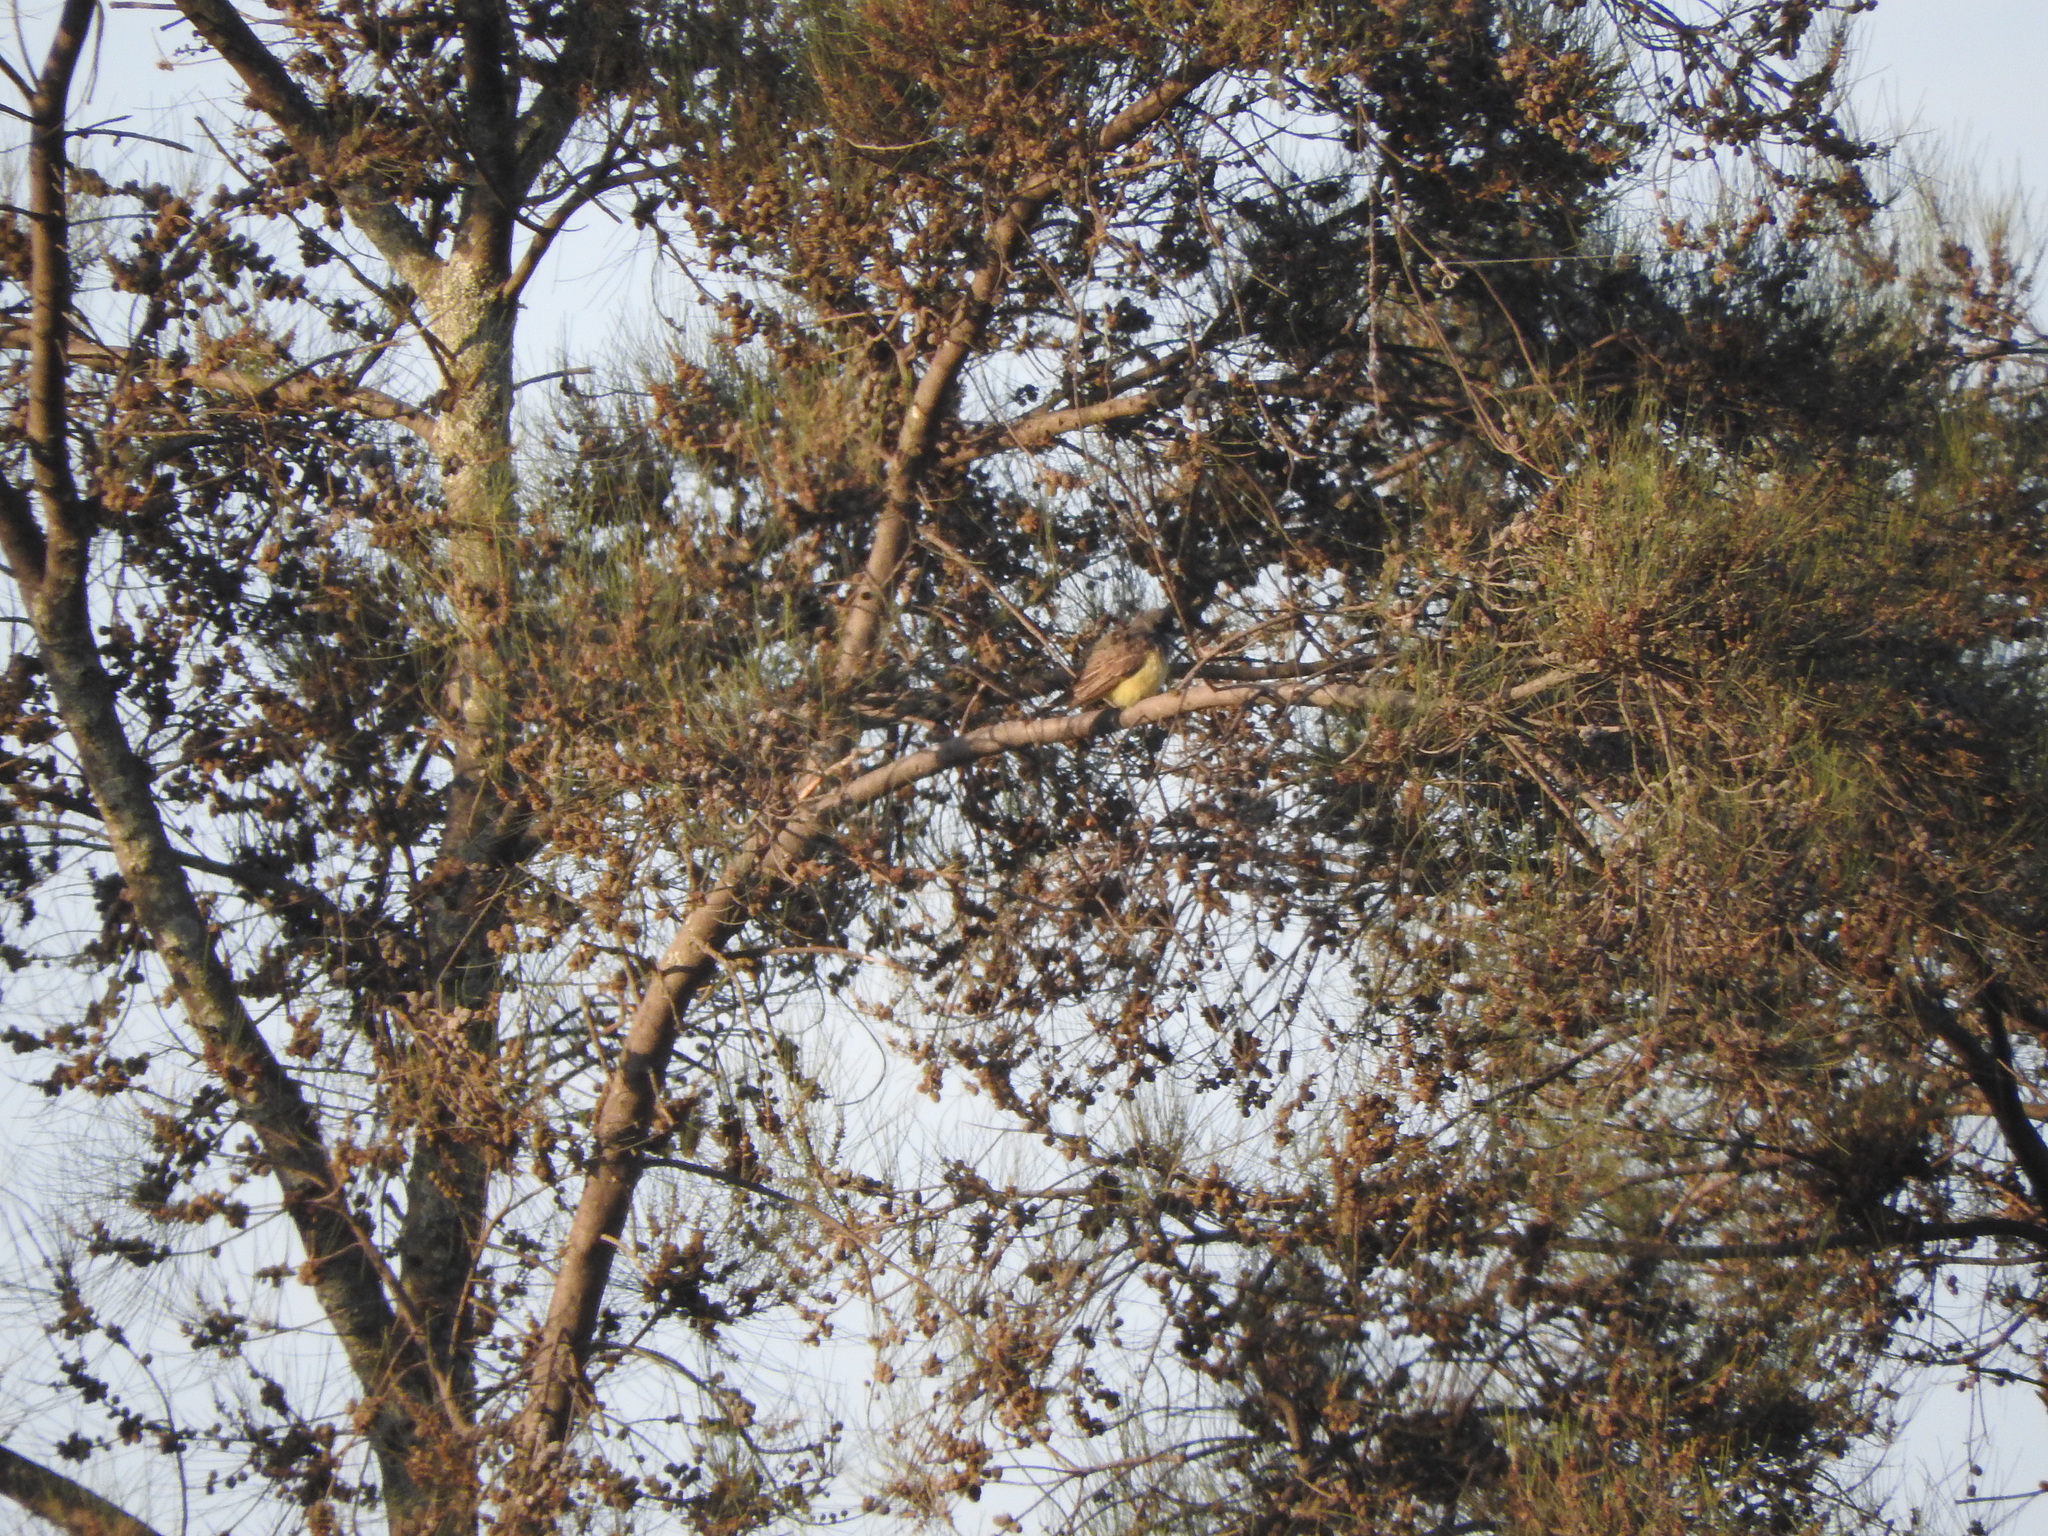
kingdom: Animalia
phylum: Chordata
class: Aves
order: Passeriformes
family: Tyrannidae
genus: Tyrannus
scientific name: Tyrannus vociferans
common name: Cassin's kingbird
